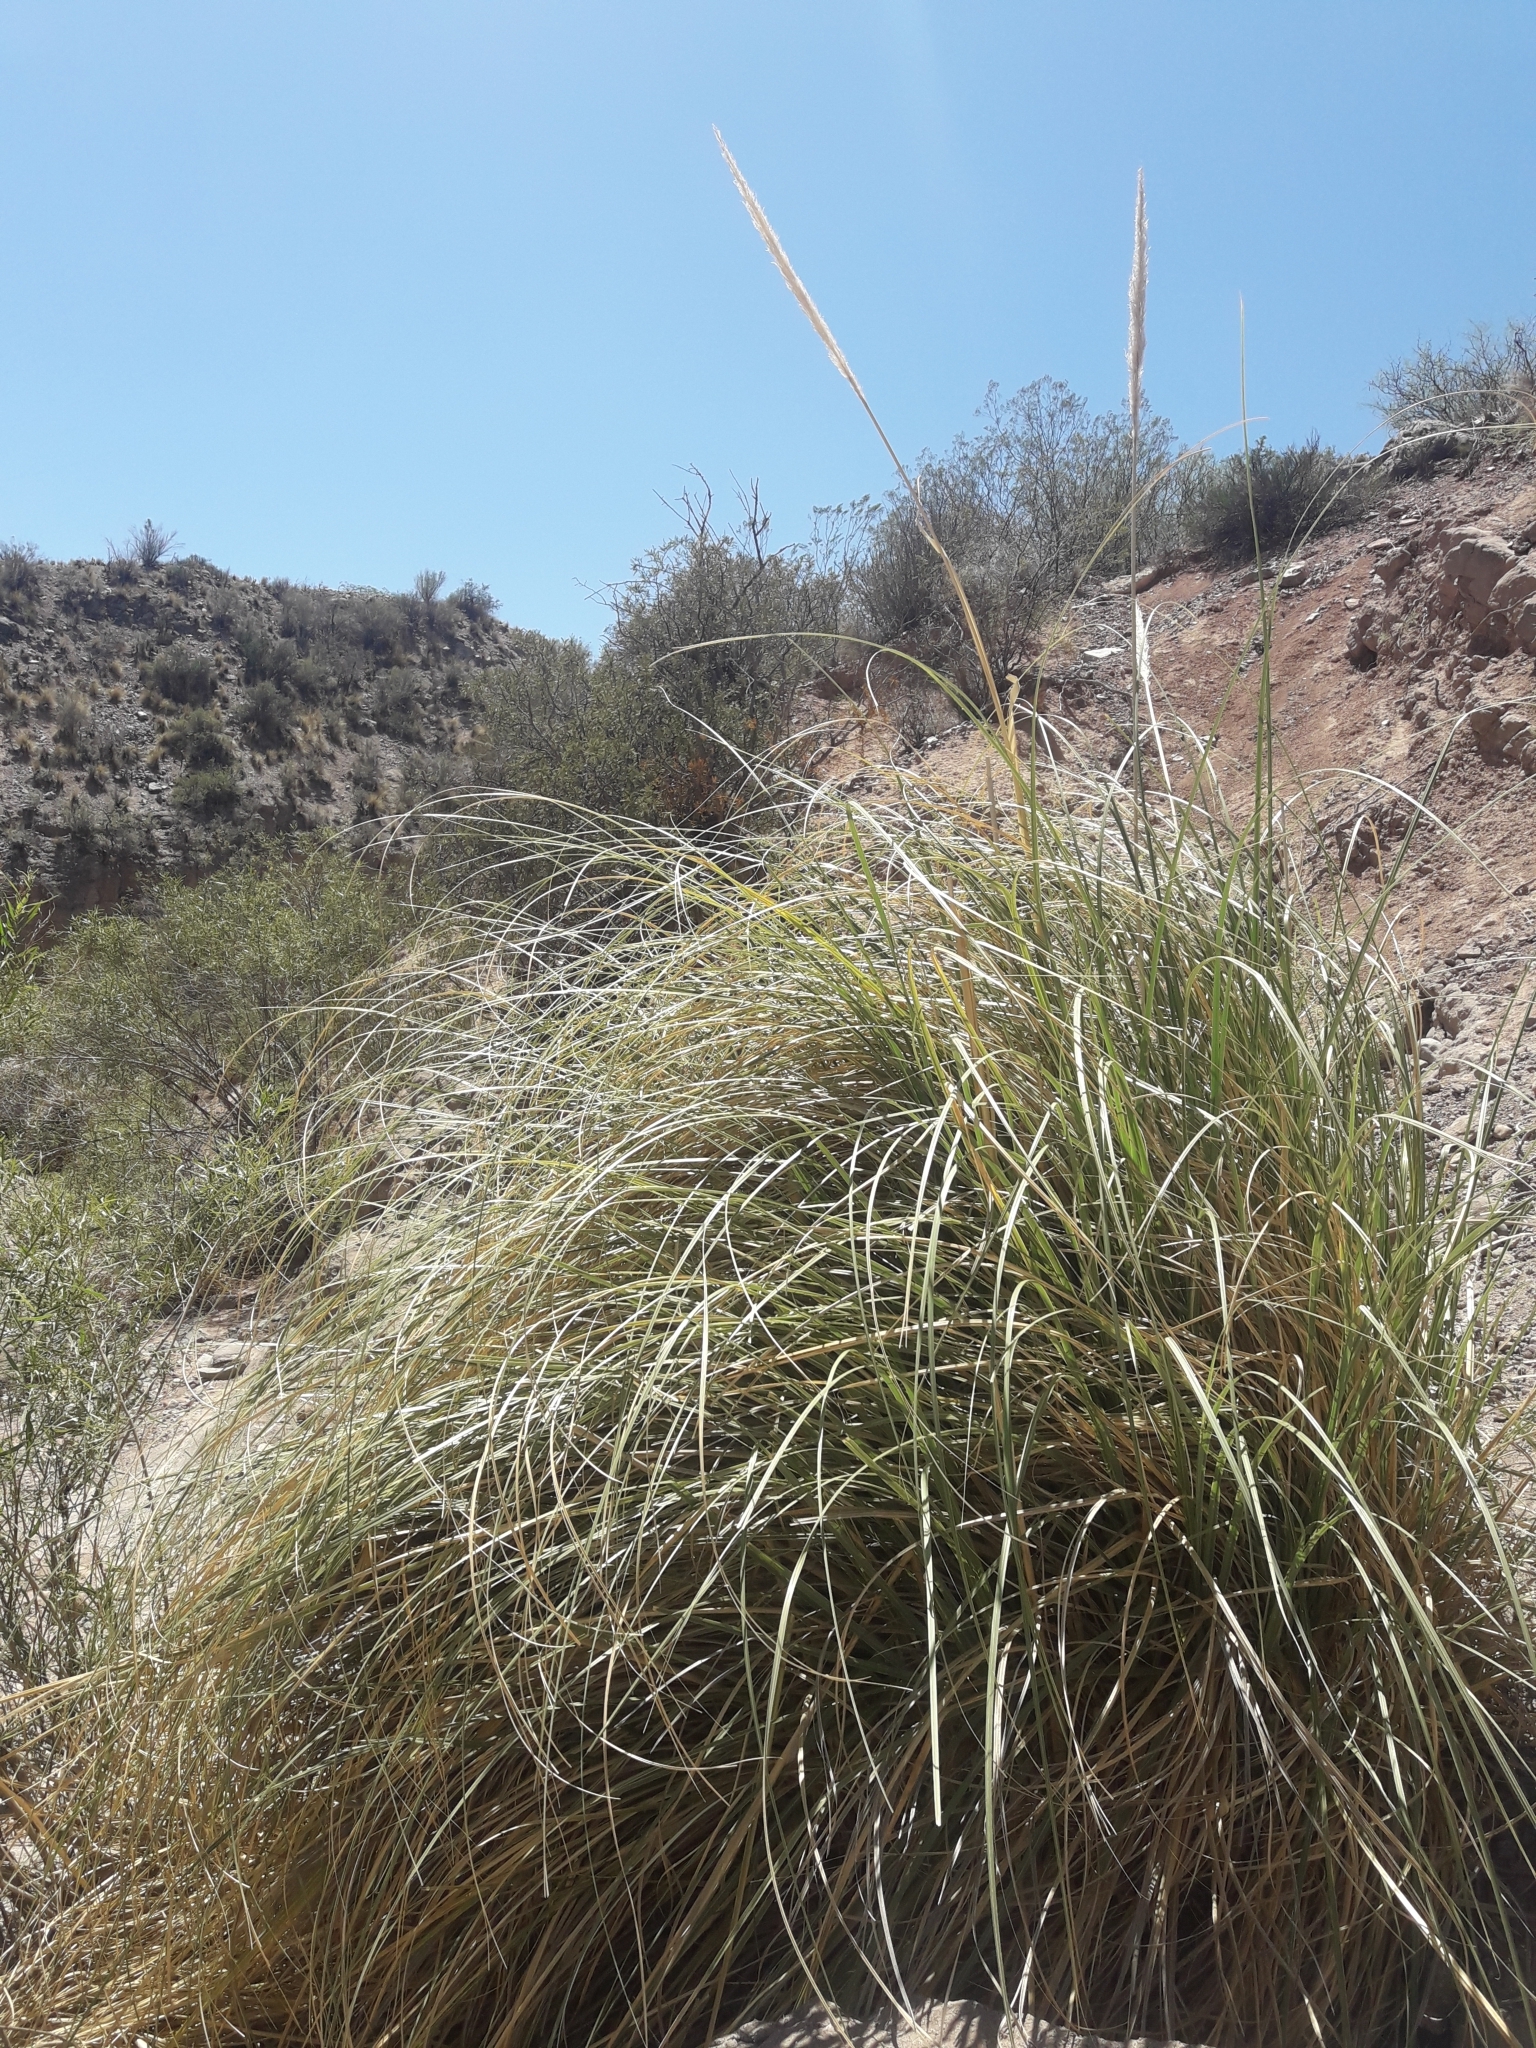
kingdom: Plantae
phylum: Tracheophyta
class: Liliopsida
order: Poales
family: Poaceae
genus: Cortaderia
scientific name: Cortaderia selloana
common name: Uruguayan pampas grass
